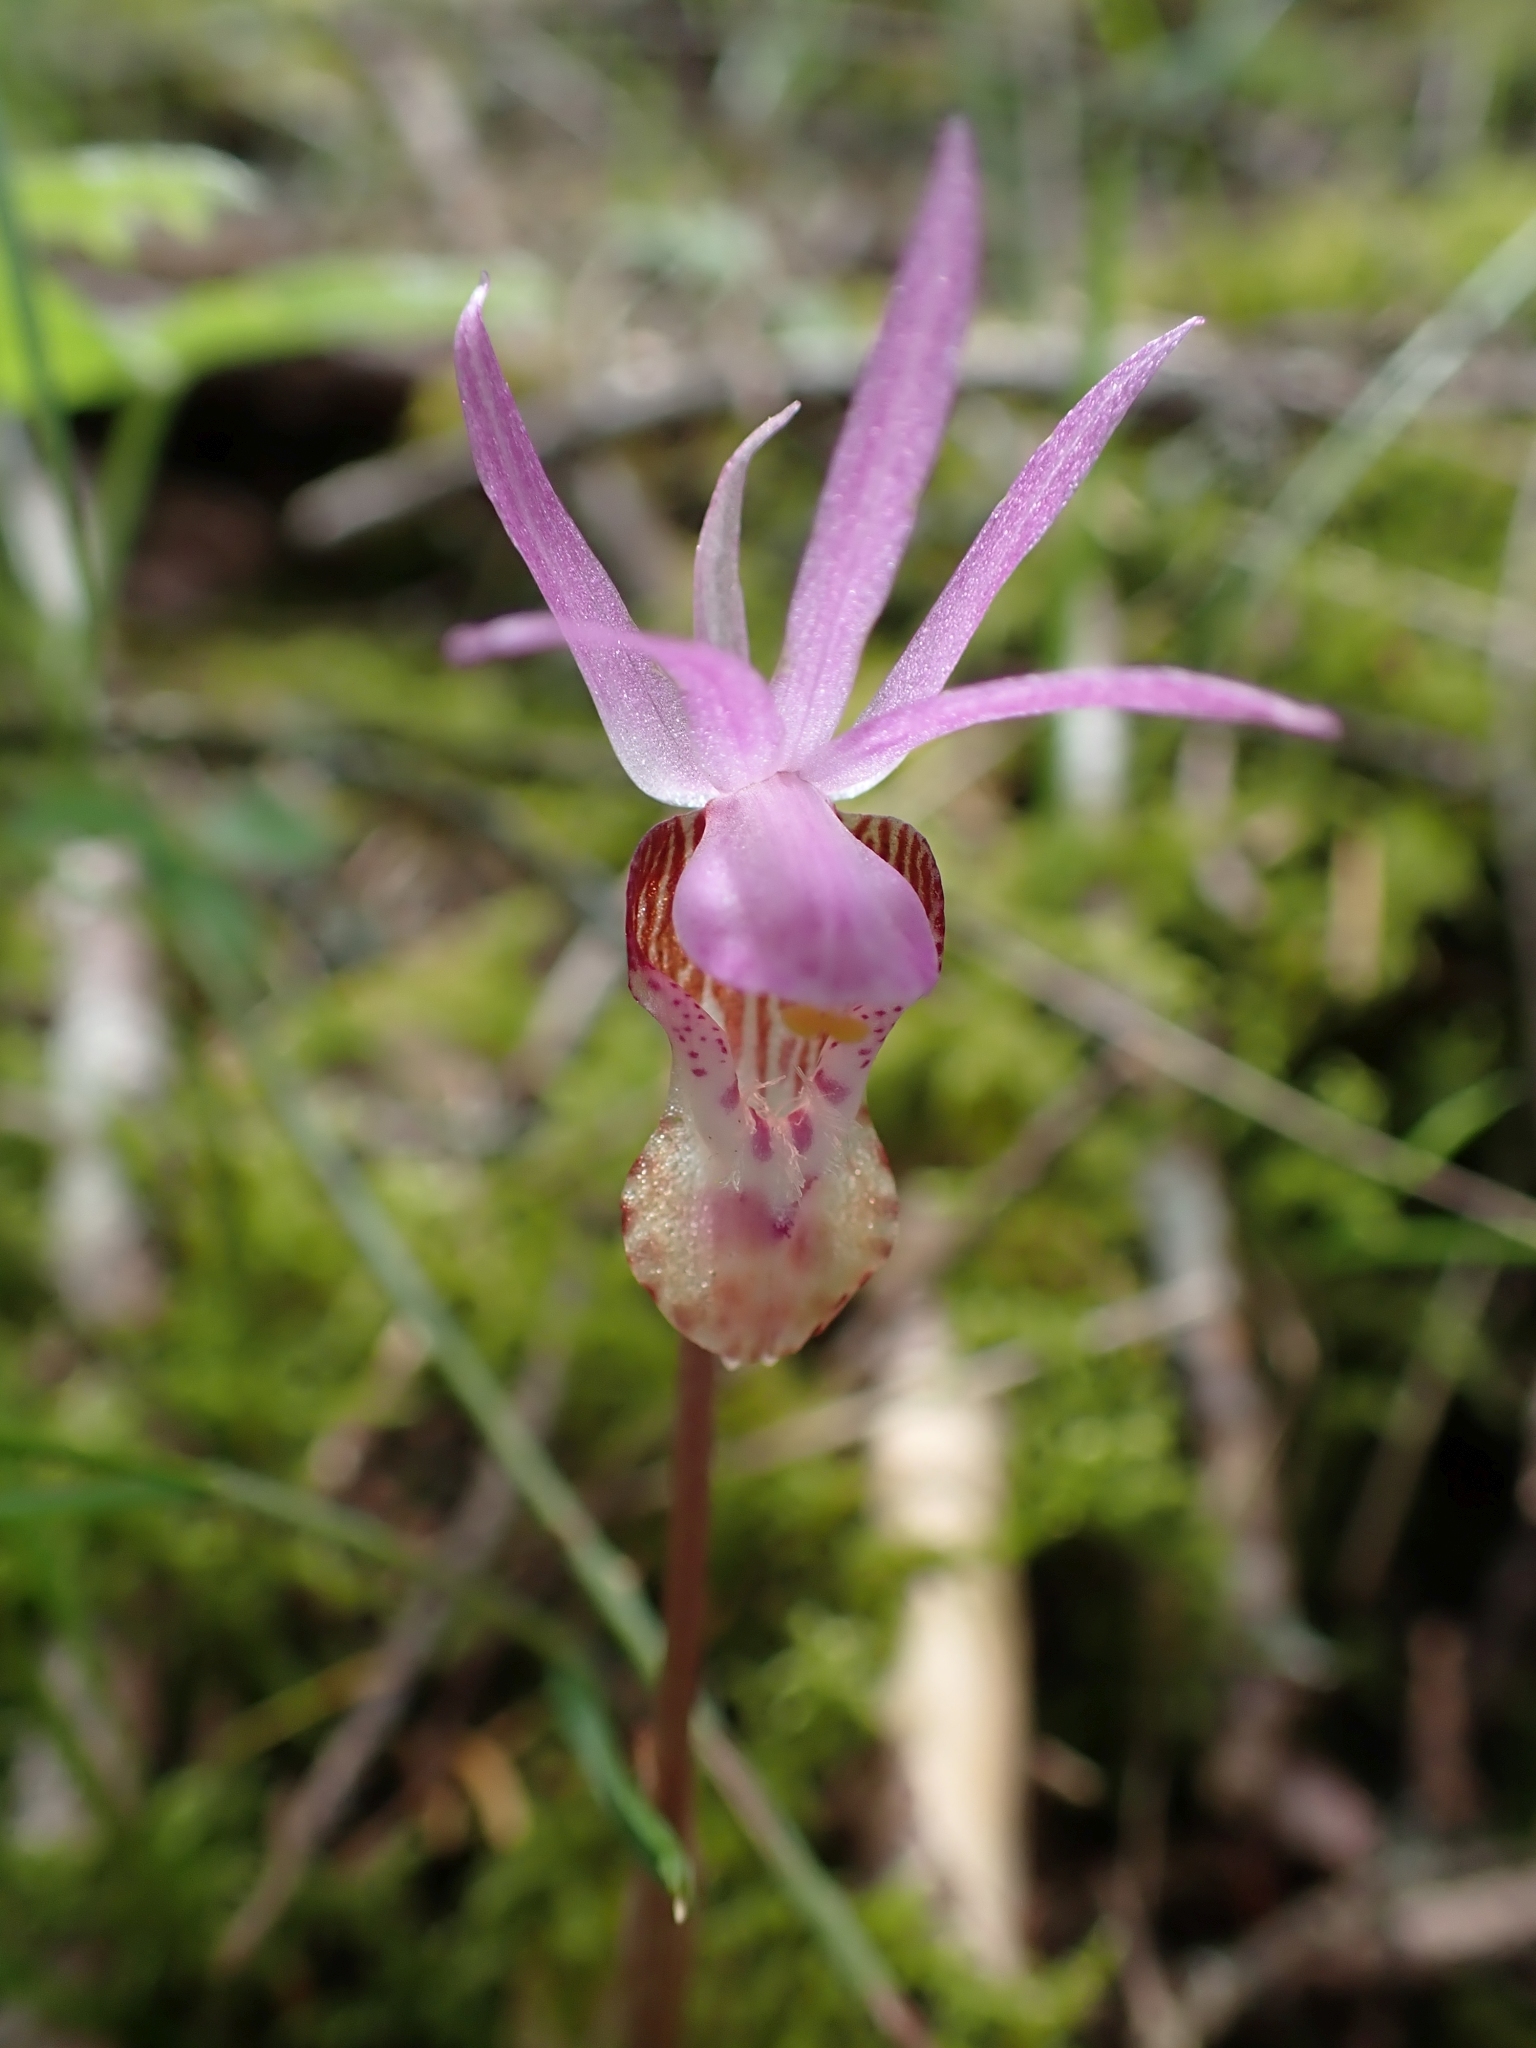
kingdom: Plantae
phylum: Tracheophyta
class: Liliopsida
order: Asparagales
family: Orchidaceae
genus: Calypso
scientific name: Calypso bulbosa
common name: Calypso
